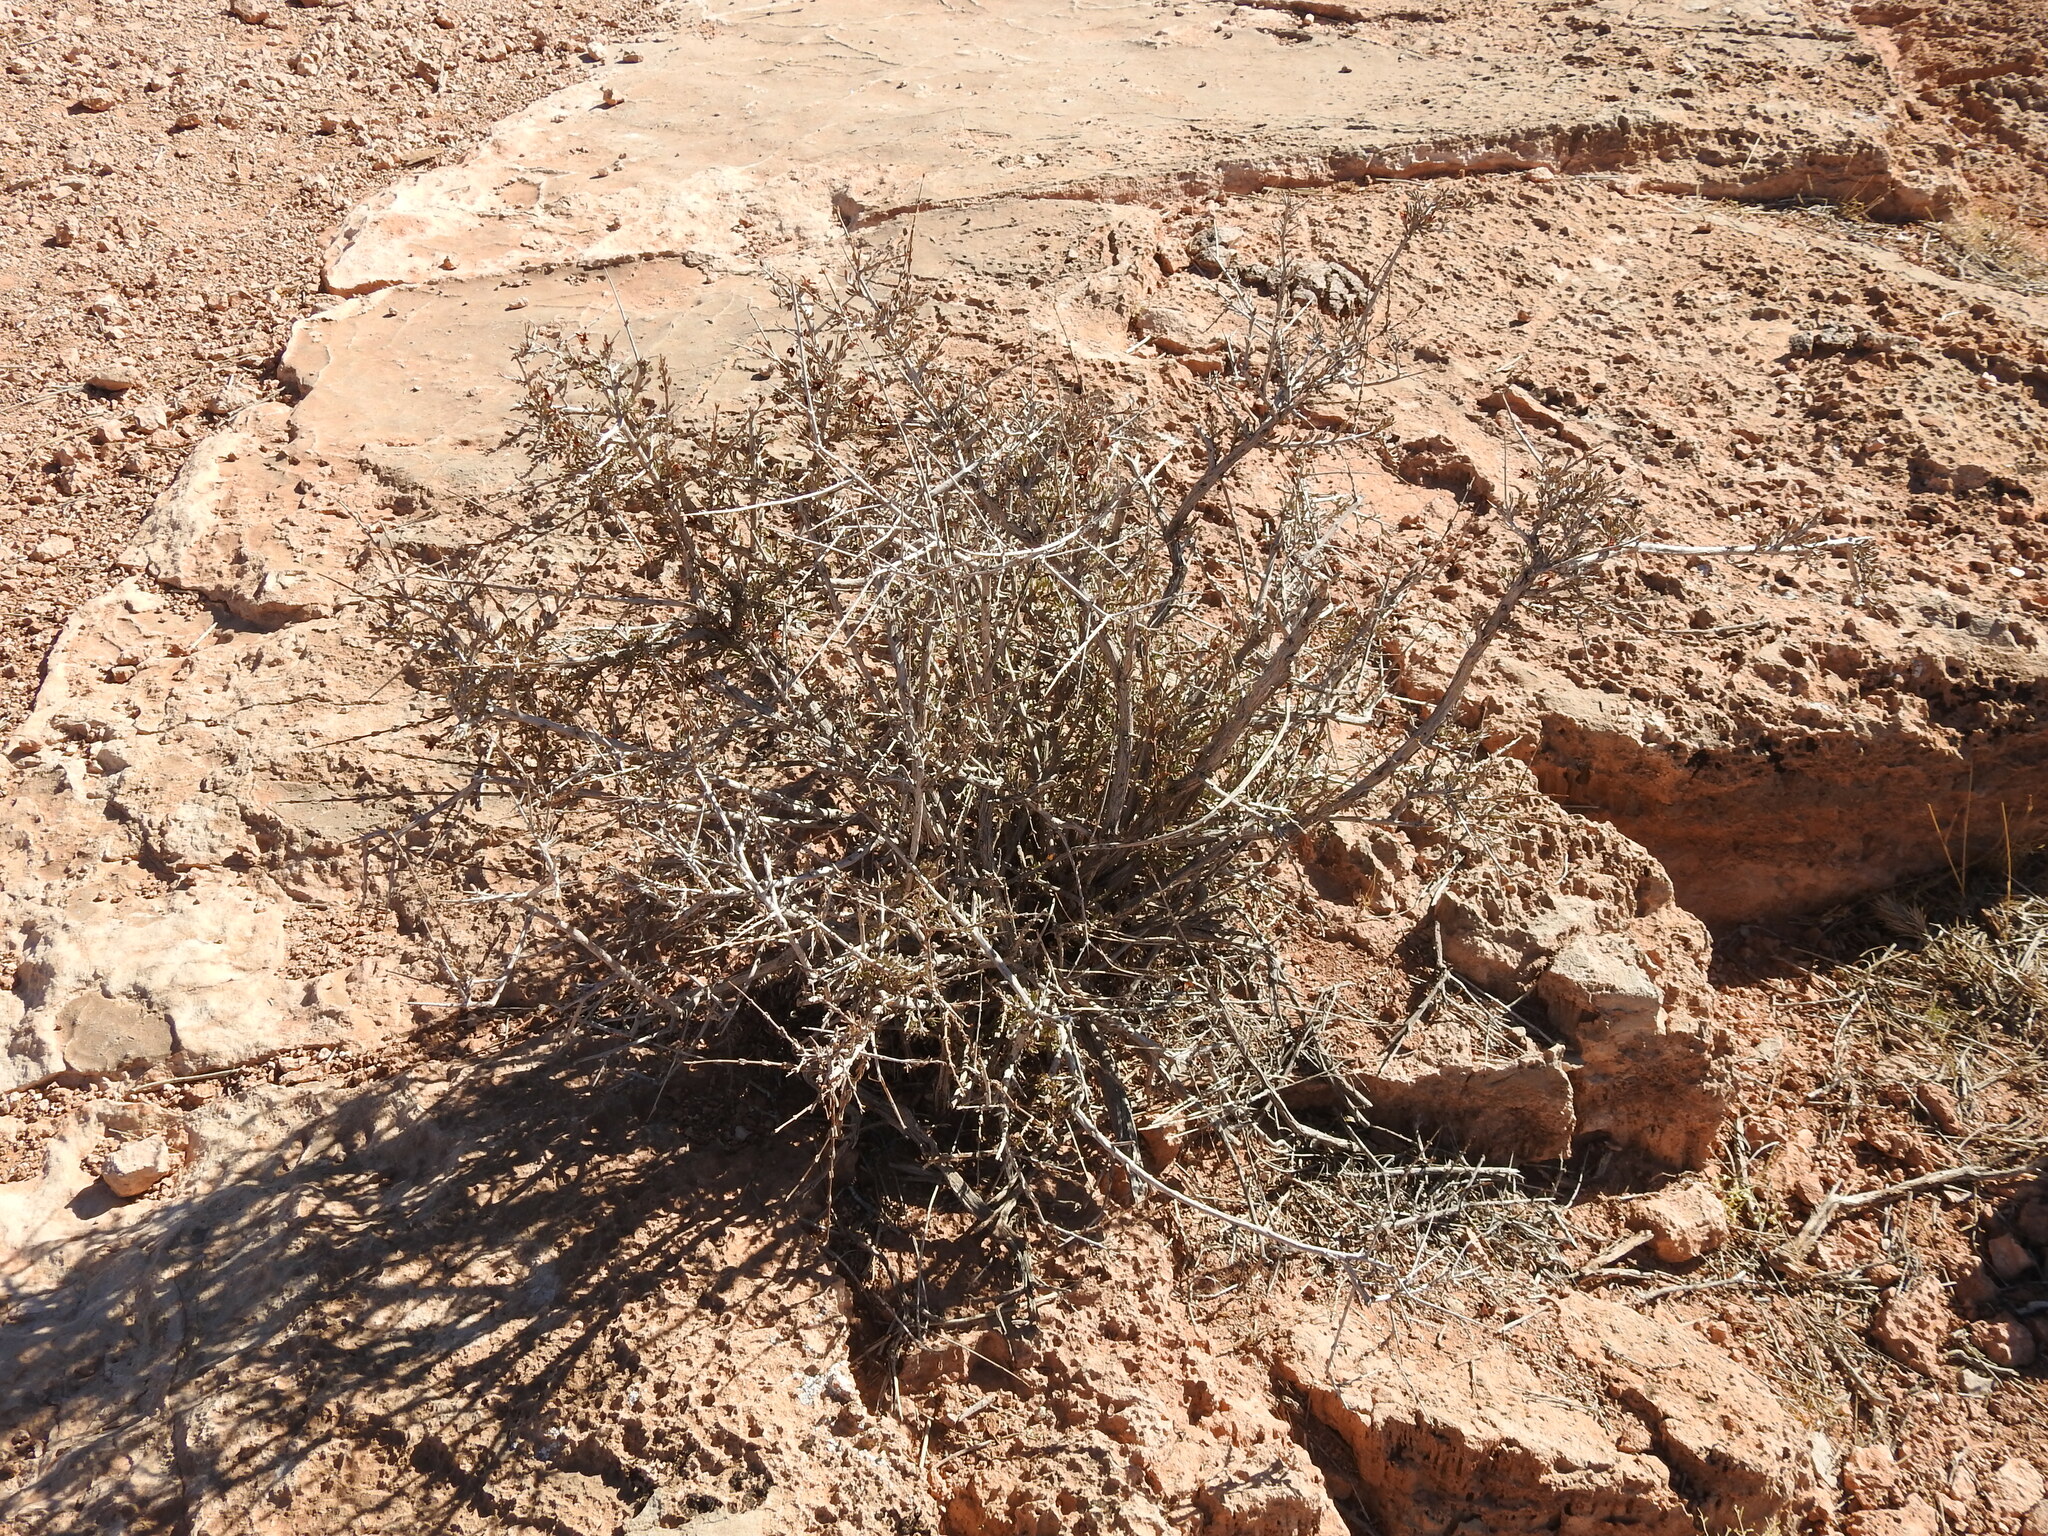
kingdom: Plantae
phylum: Tracheophyta
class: Magnoliopsida
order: Rosales
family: Rosaceae
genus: Coleogyne
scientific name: Coleogyne ramosissima
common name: Blackbrush
